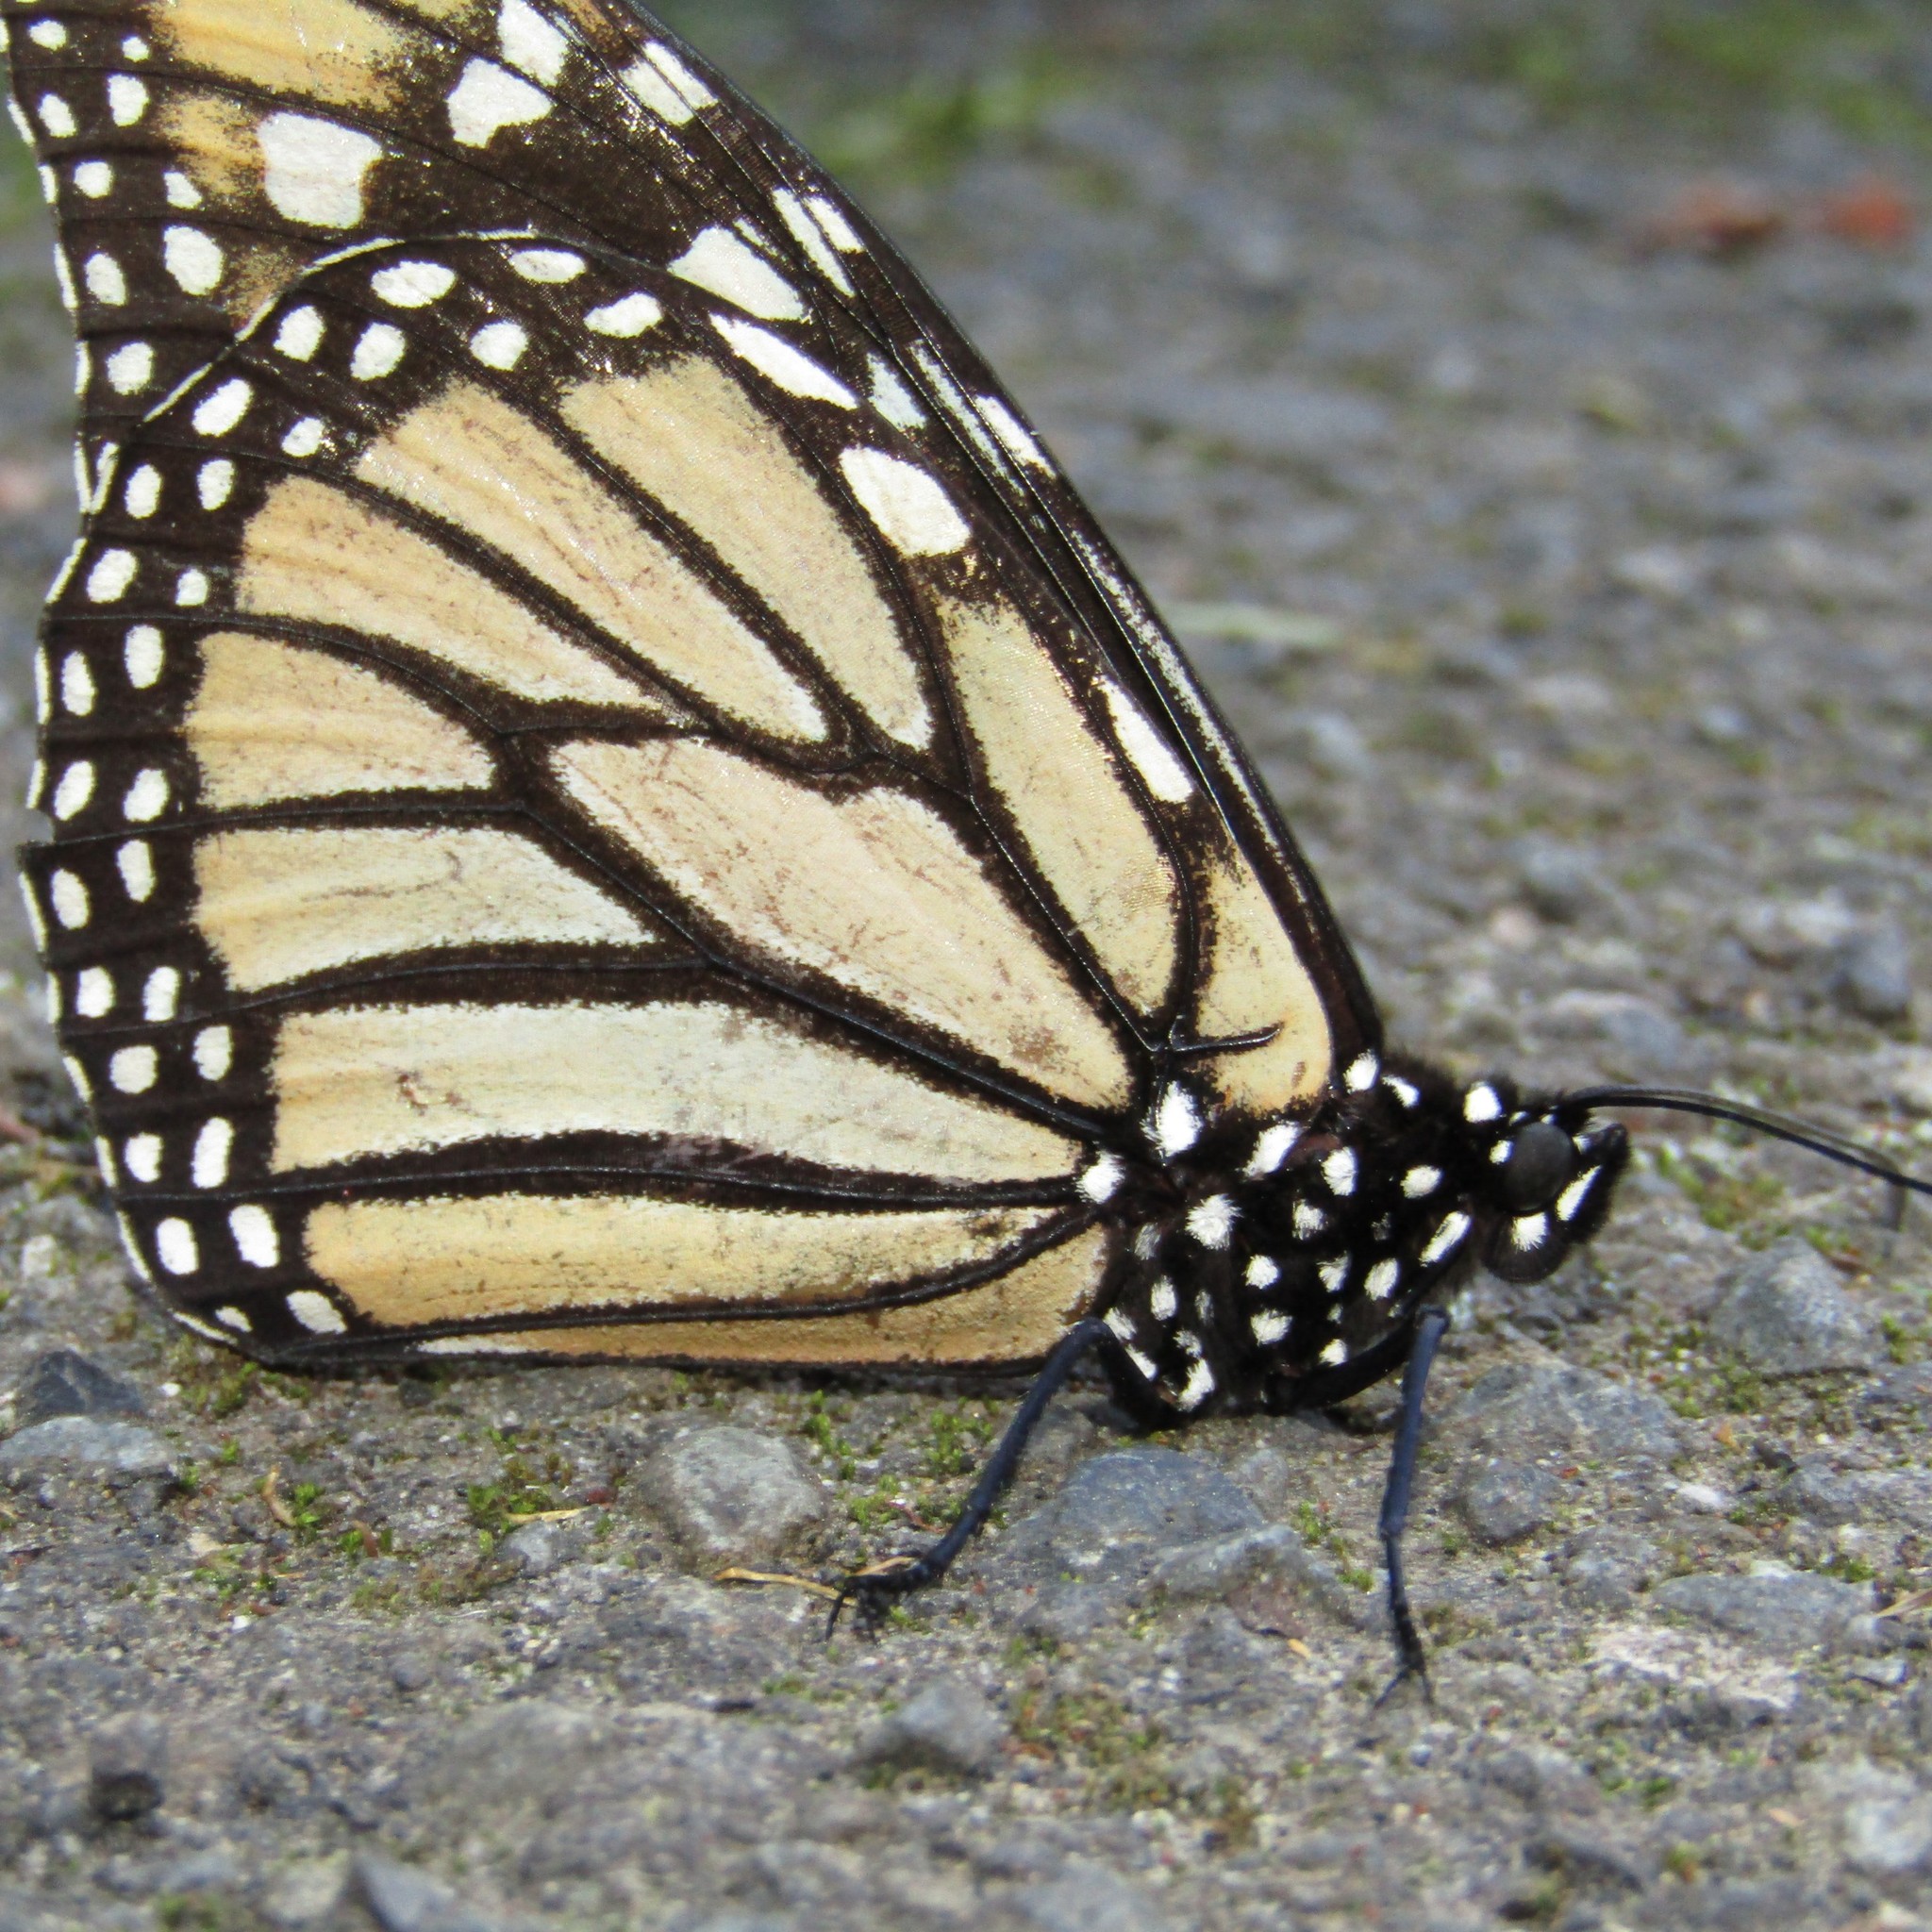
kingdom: Animalia
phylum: Arthropoda
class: Insecta
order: Lepidoptera
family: Nymphalidae
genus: Danaus
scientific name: Danaus plexippus
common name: Monarch
